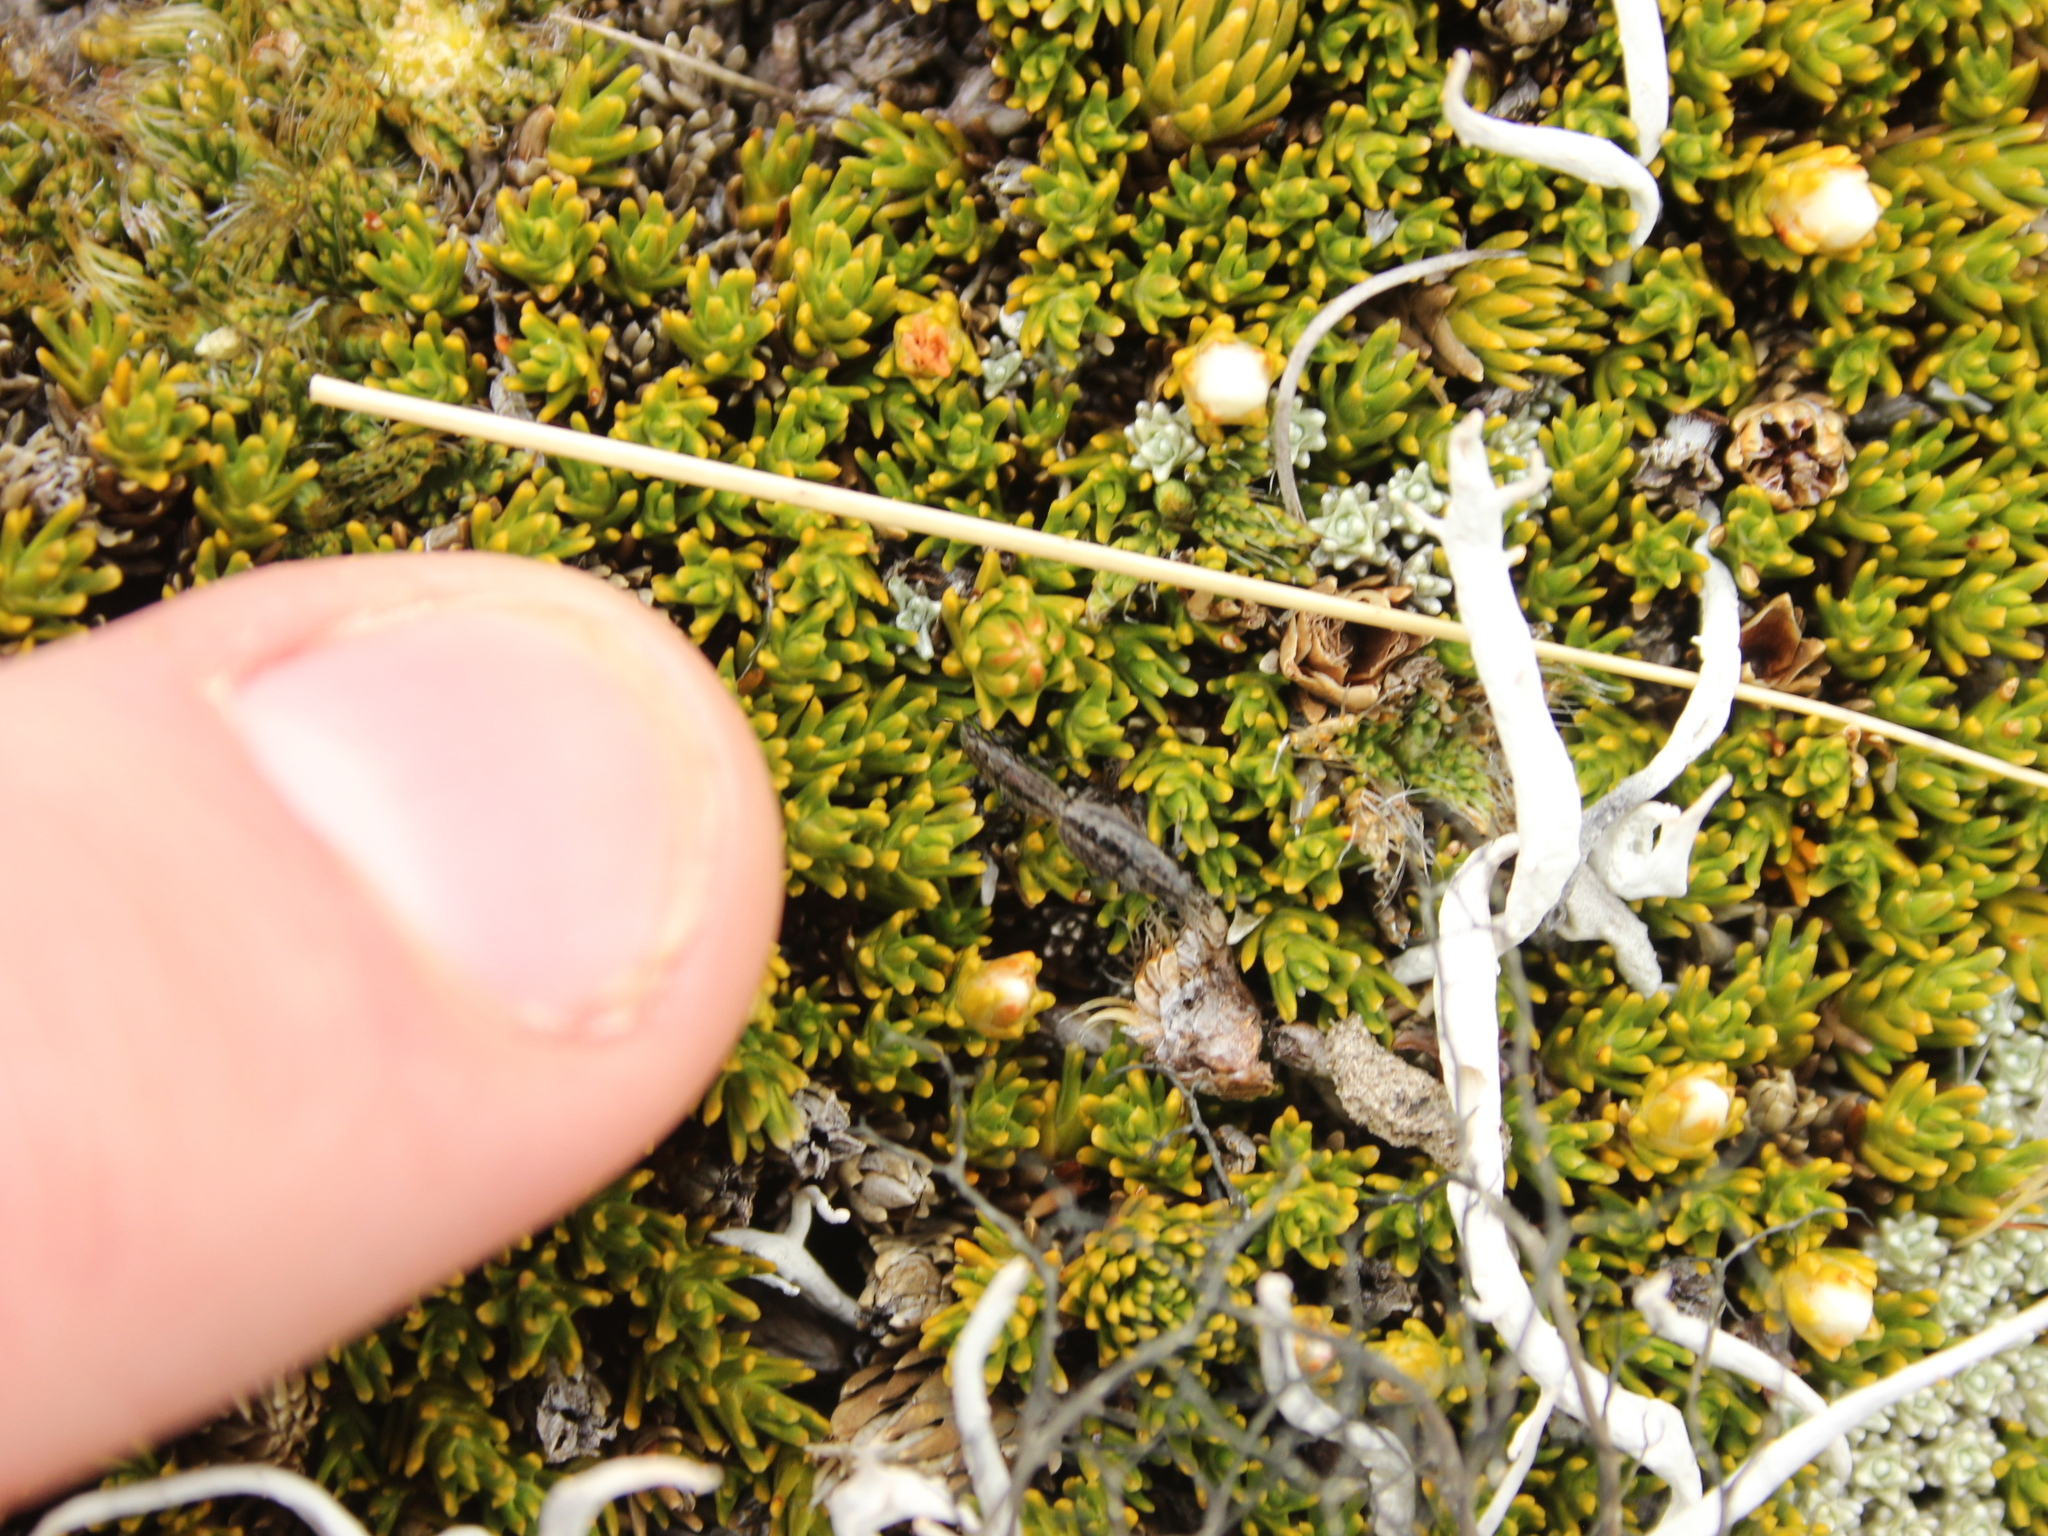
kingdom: Plantae
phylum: Tracheophyta
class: Magnoliopsida
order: Ericales
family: Ericaceae
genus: Dracophyllum
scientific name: Dracophyllum muscoides
